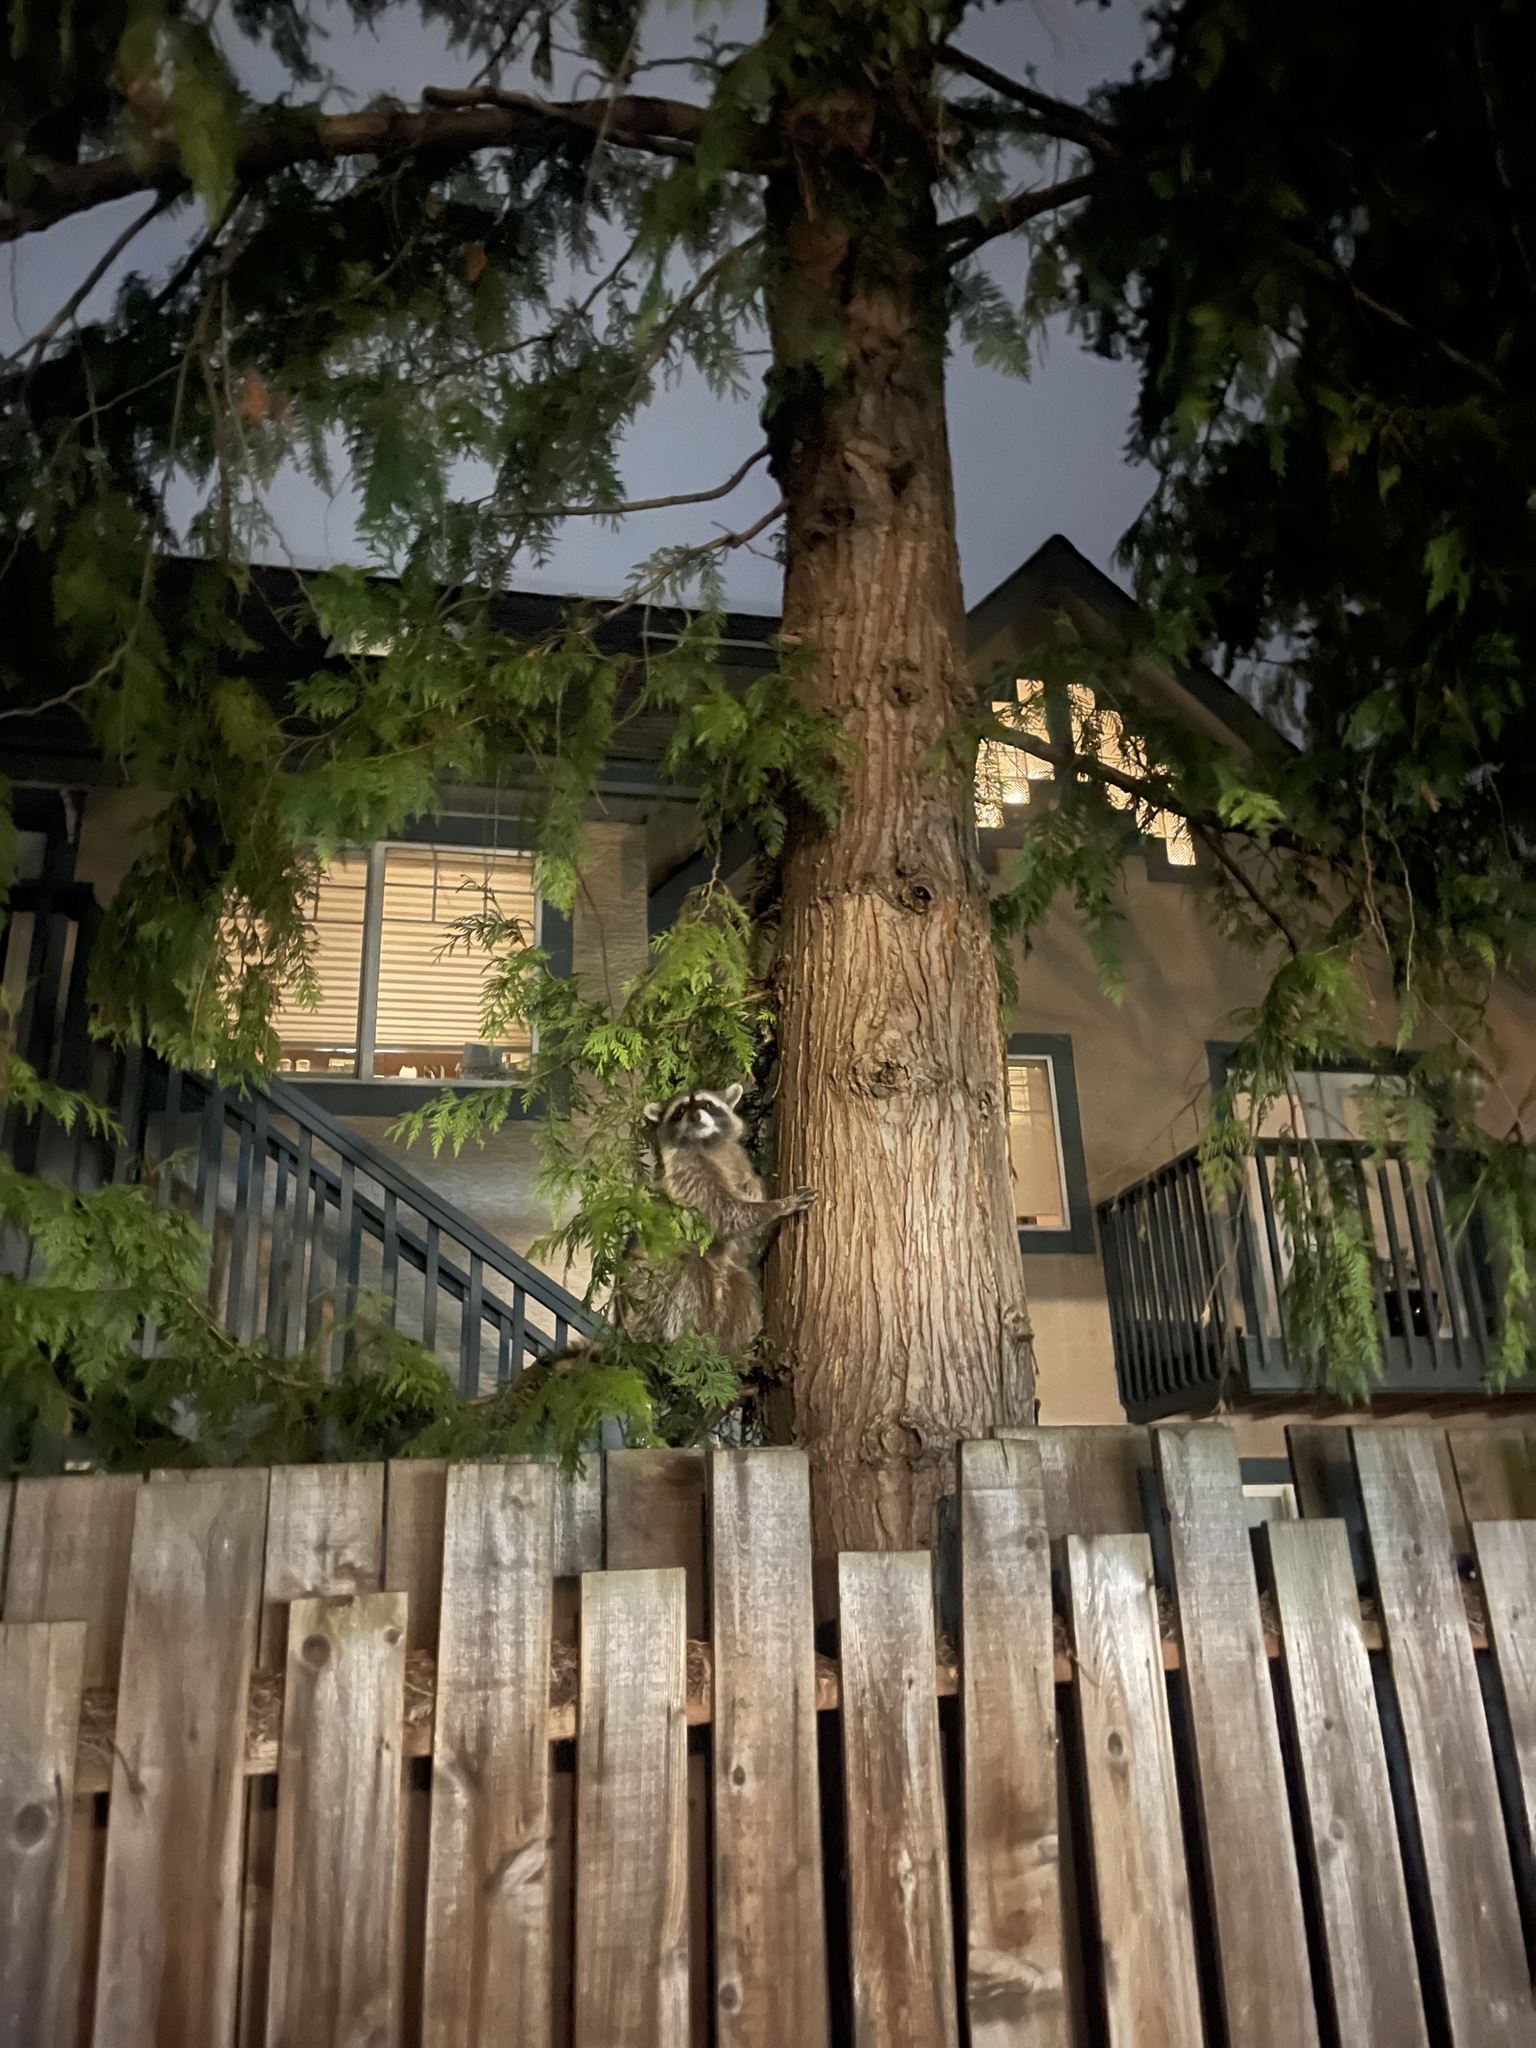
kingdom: Animalia
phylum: Chordata
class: Mammalia
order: Carnivora
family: Procyonidae
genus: Procyon
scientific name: Procyon lotor
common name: Raccoon
